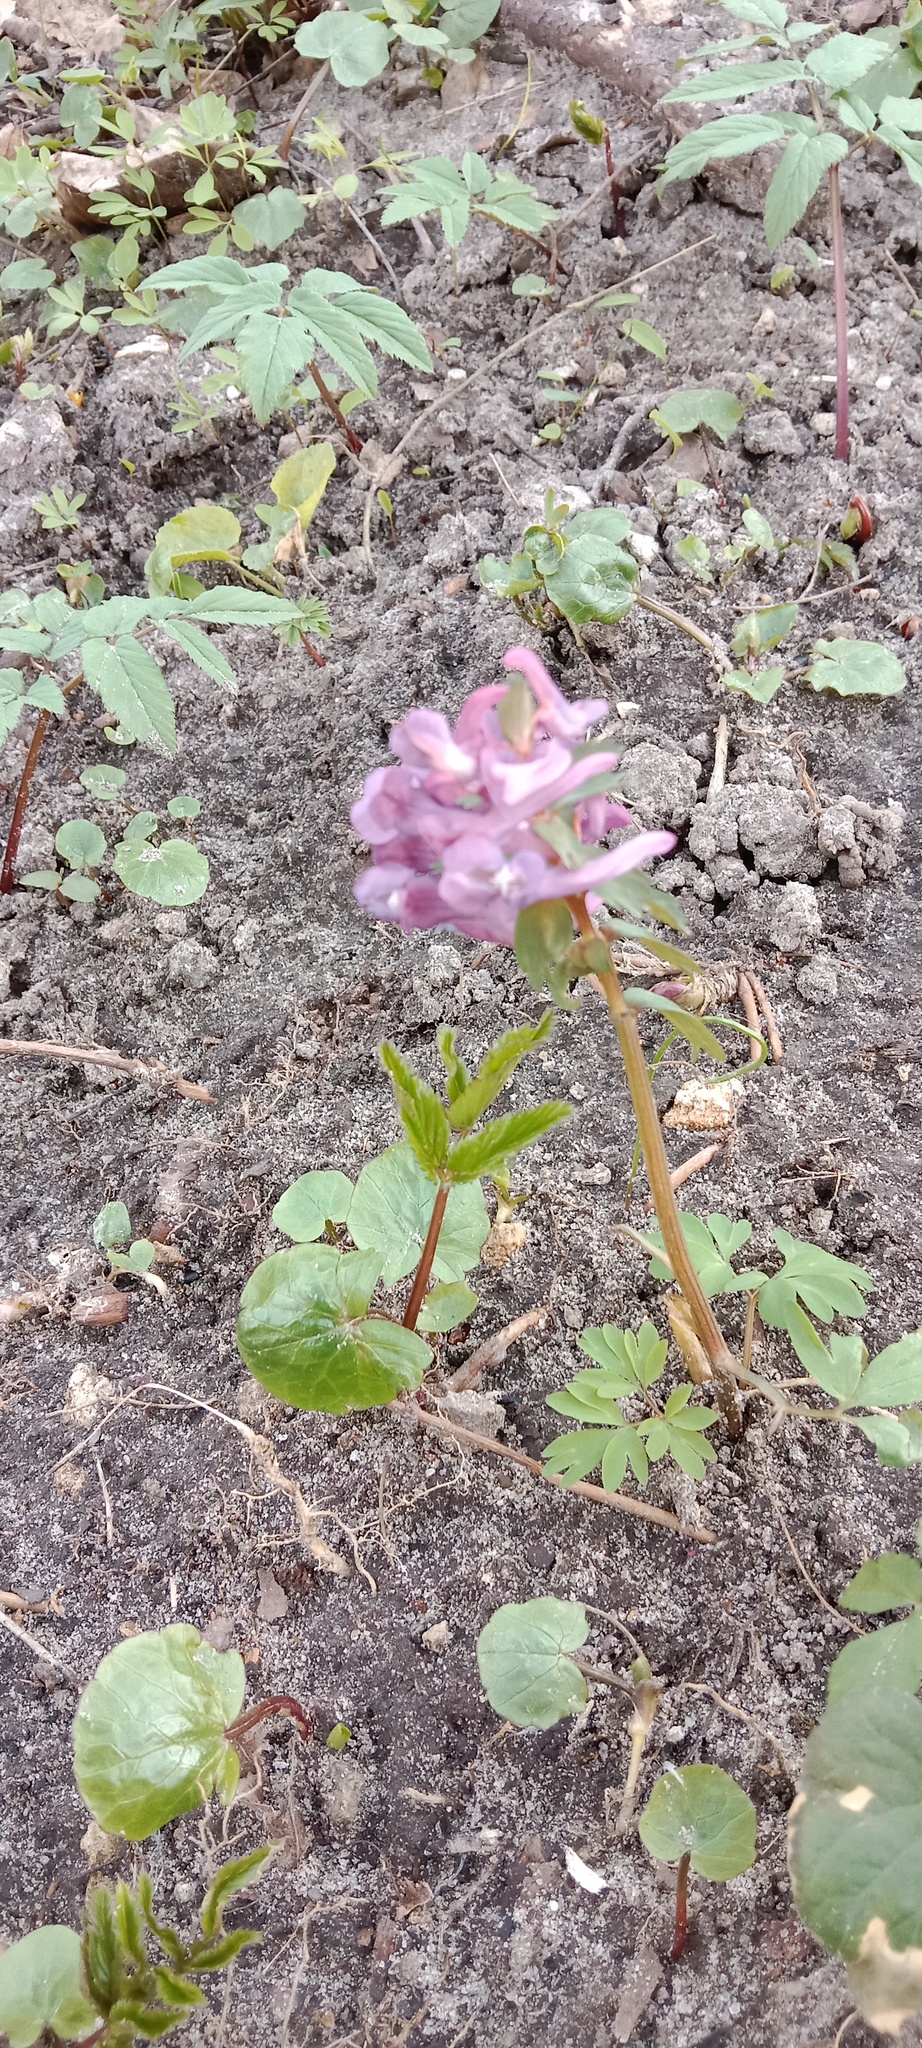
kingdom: Plantae
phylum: Tracheophyta
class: Magnoliopsida
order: Ranunculales
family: Papaveraceae
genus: Corydalis
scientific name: Corydalis solida
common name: Bird-in-a-bush
